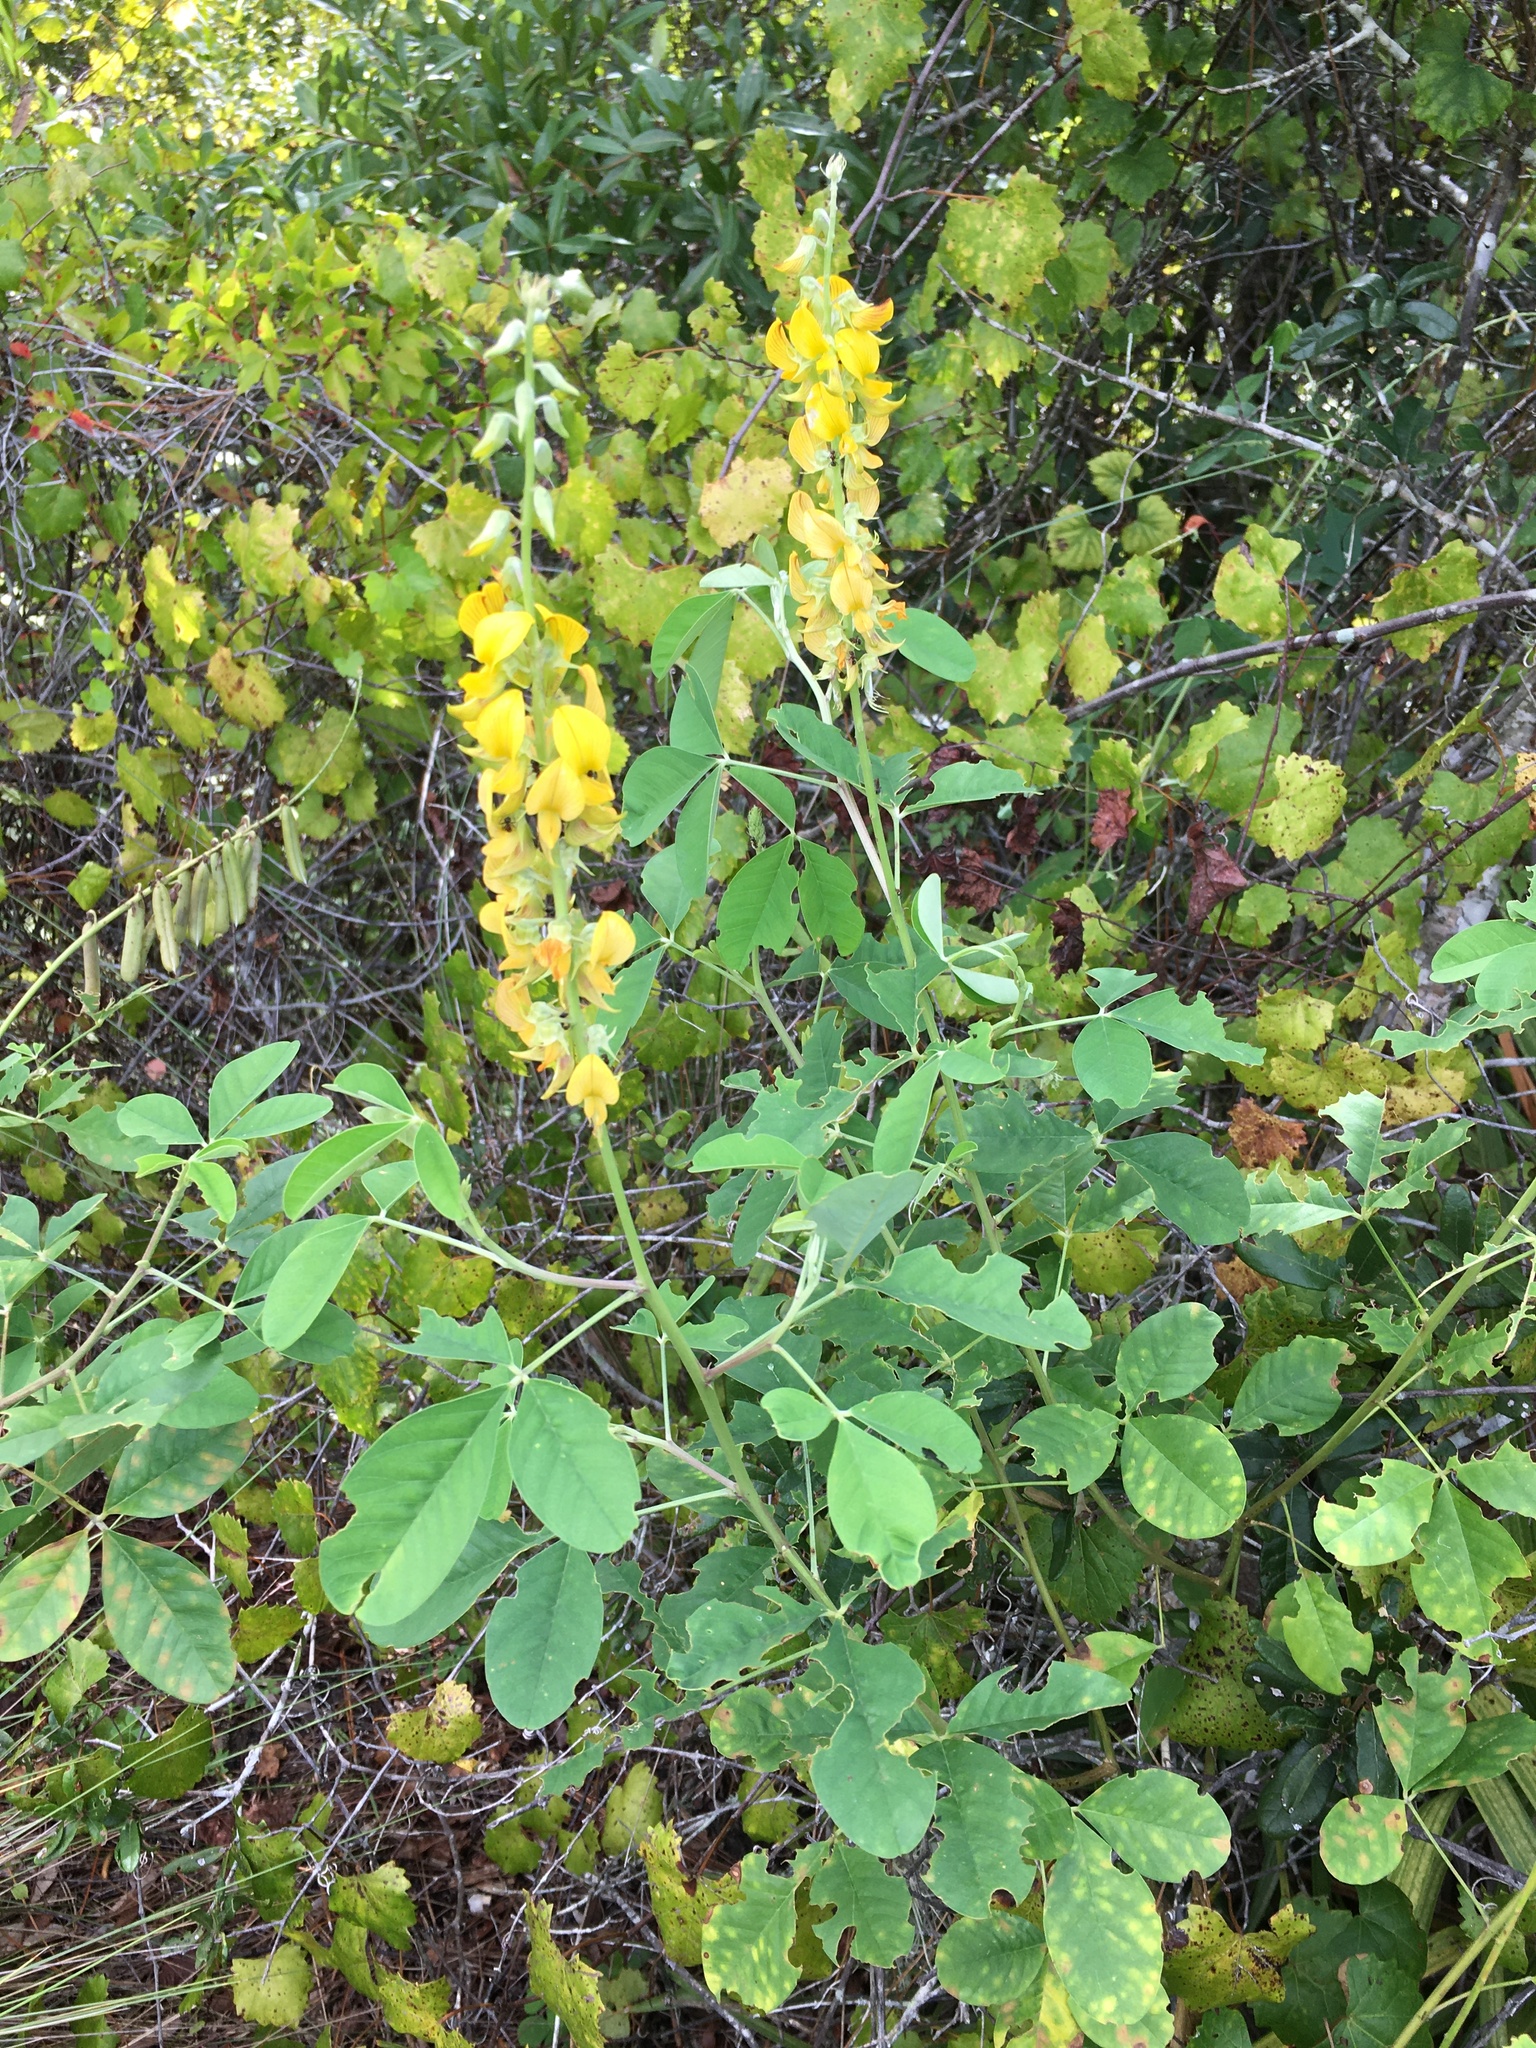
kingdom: Plantae
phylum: Tracheophyta
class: Magnoliopsida
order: Fabales
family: Fabaceae
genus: Crotalaria
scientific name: Crotalaria pallida
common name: Smooth rattlebox
